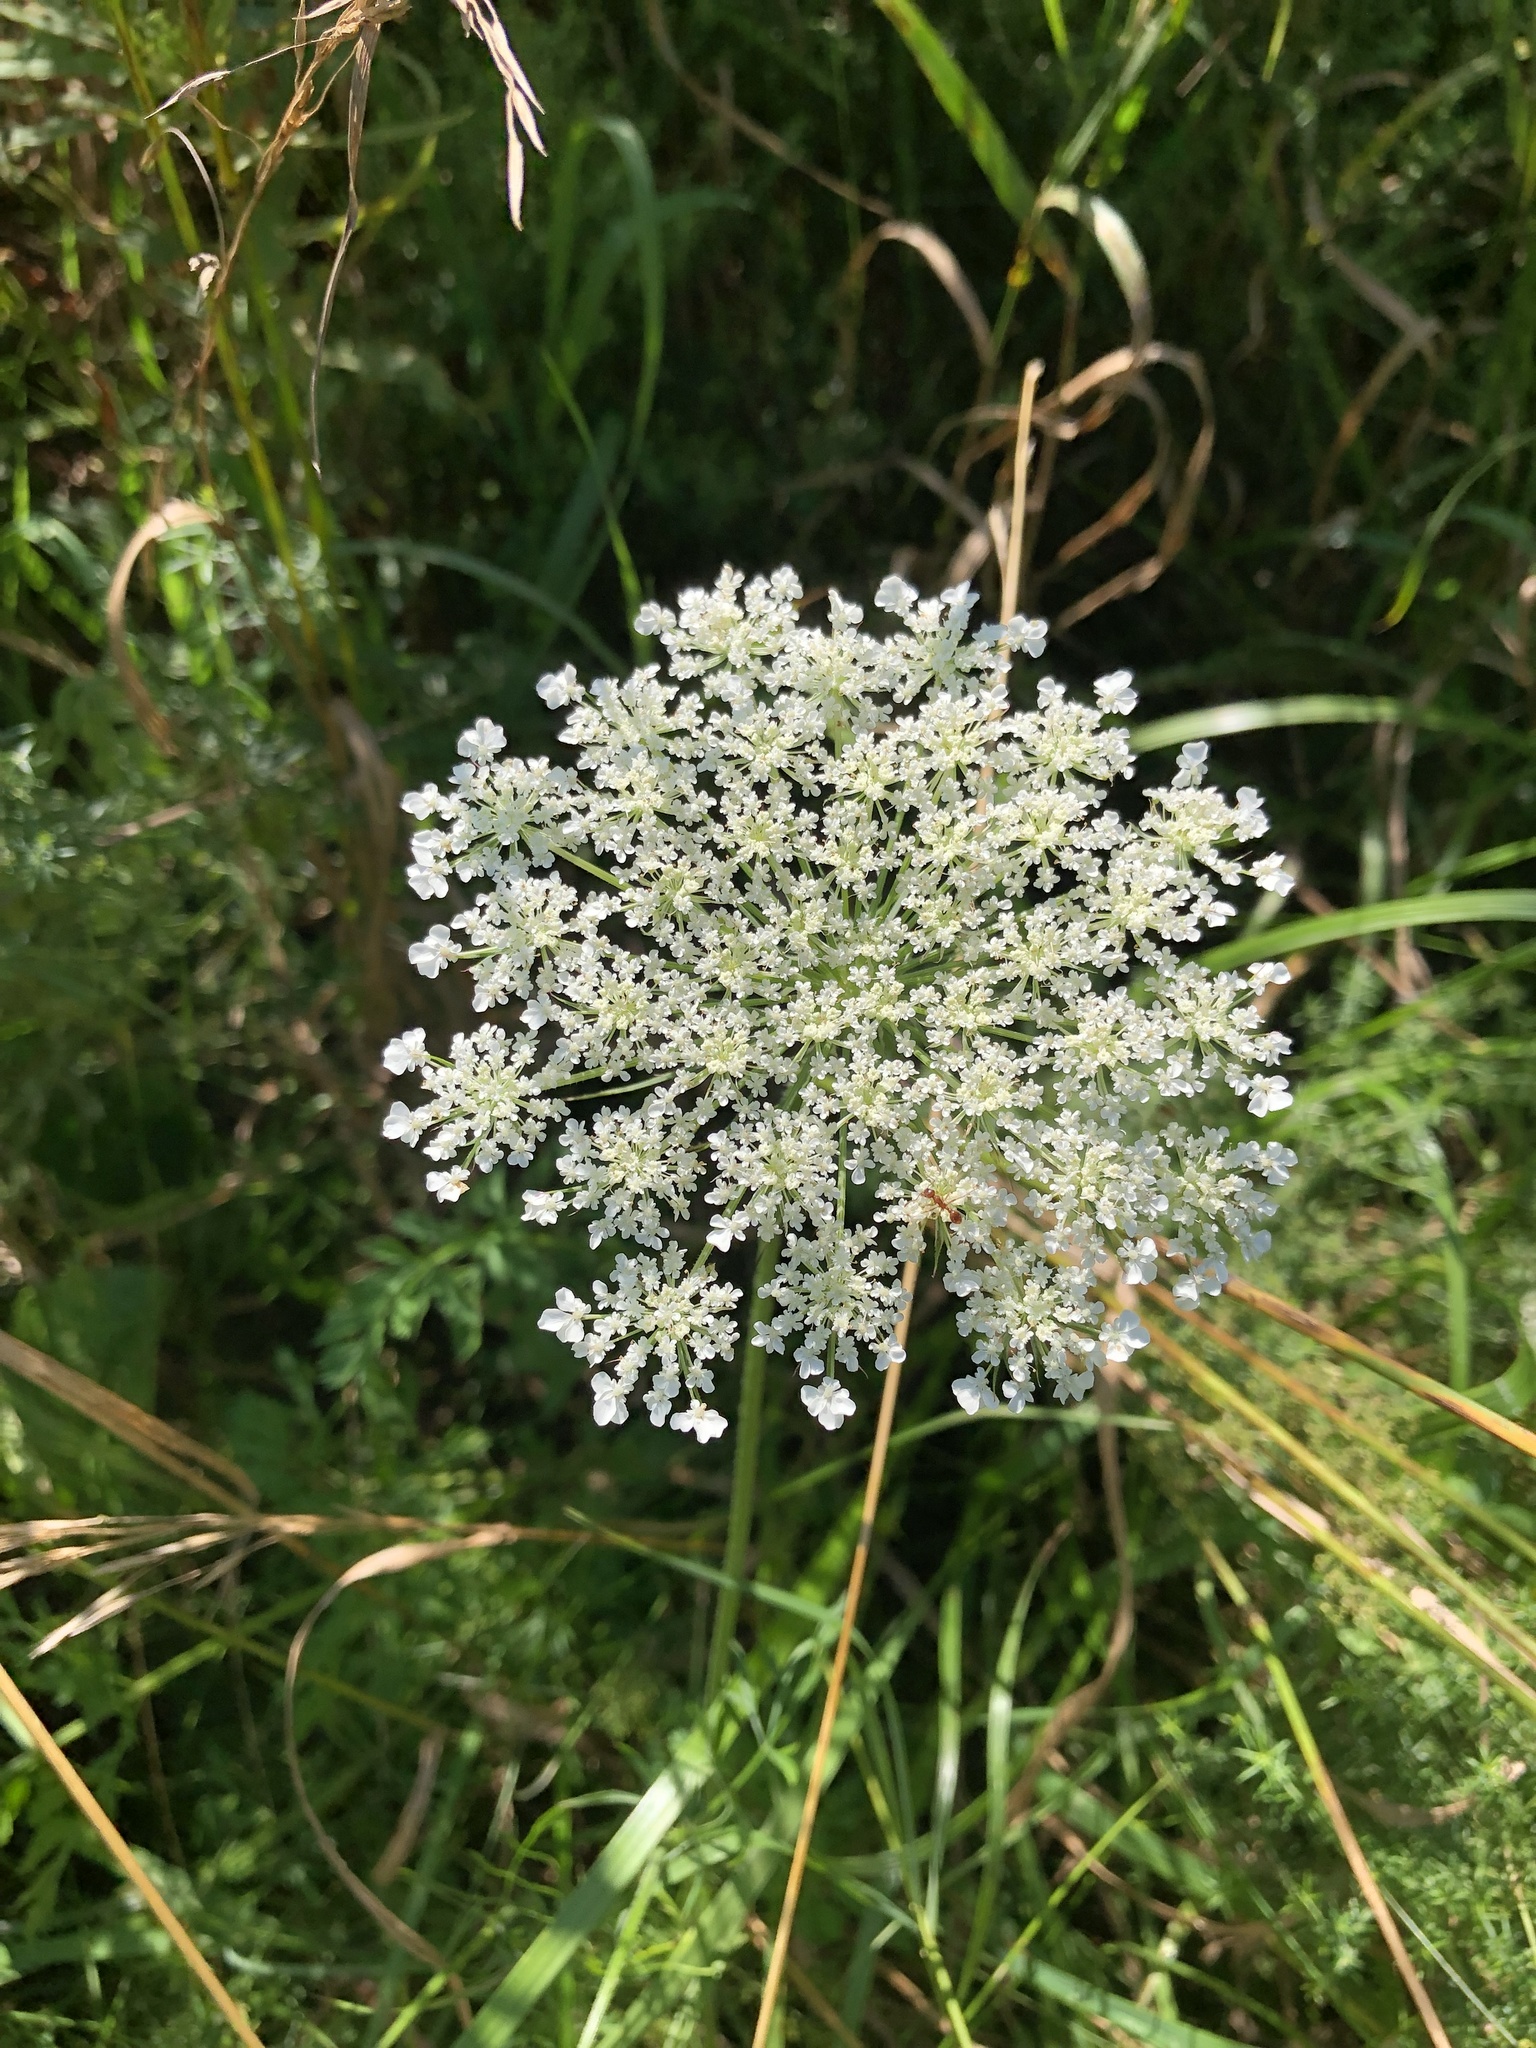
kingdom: Plantae
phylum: Tracheophyta
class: Magnoliopsida
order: Apiales
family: Apiaceae
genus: Daucus
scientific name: Daucus carota
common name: Wild carrot
